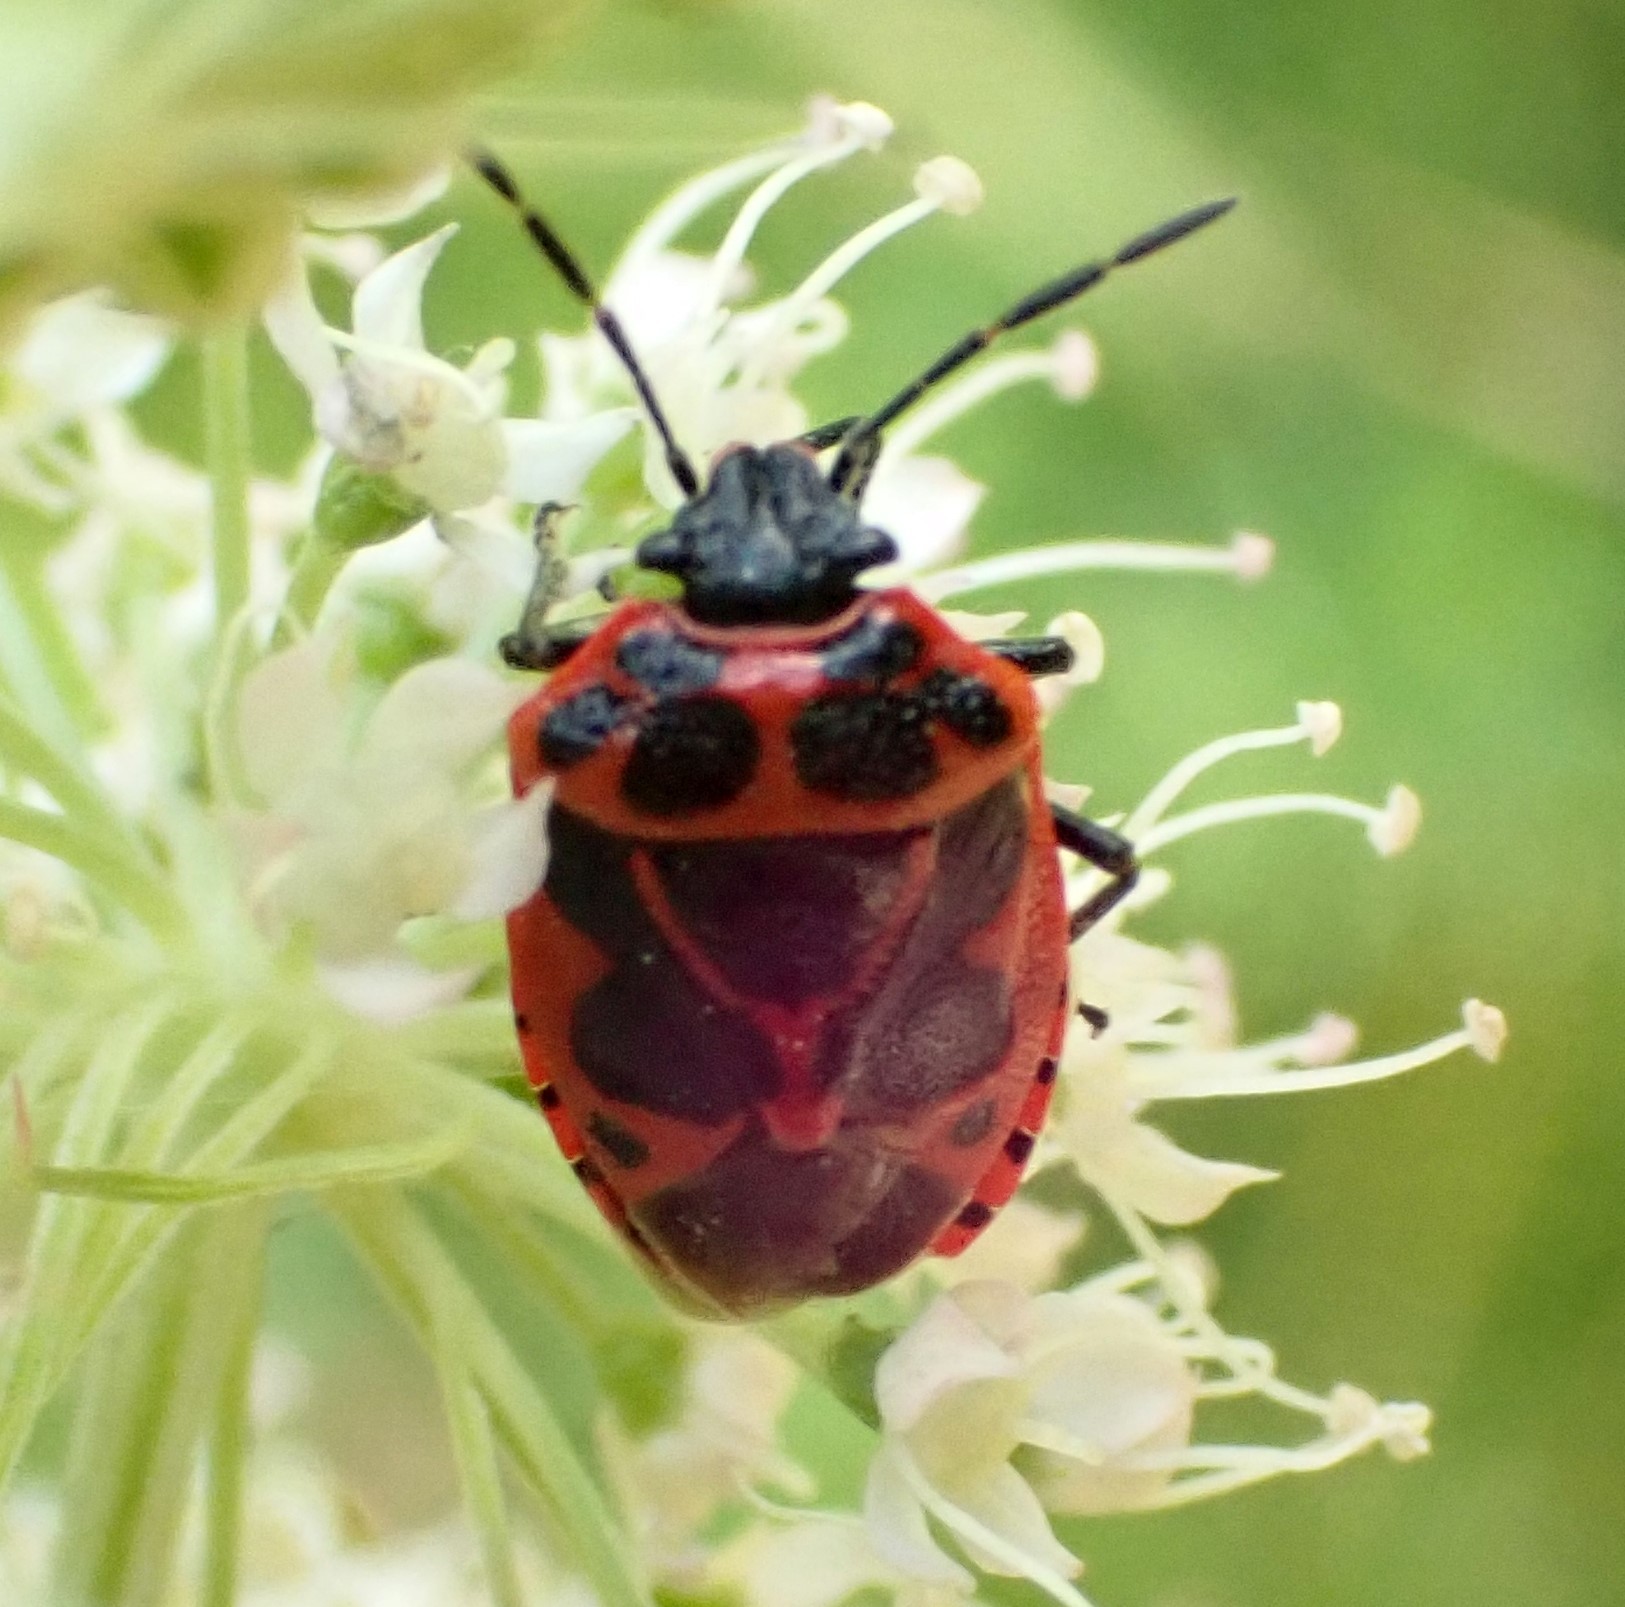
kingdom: Animalia
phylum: Arthropoda
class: Insecta
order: Hemiptera
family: Pentatomidae
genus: Eurydema
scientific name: Eurydema dominulus
